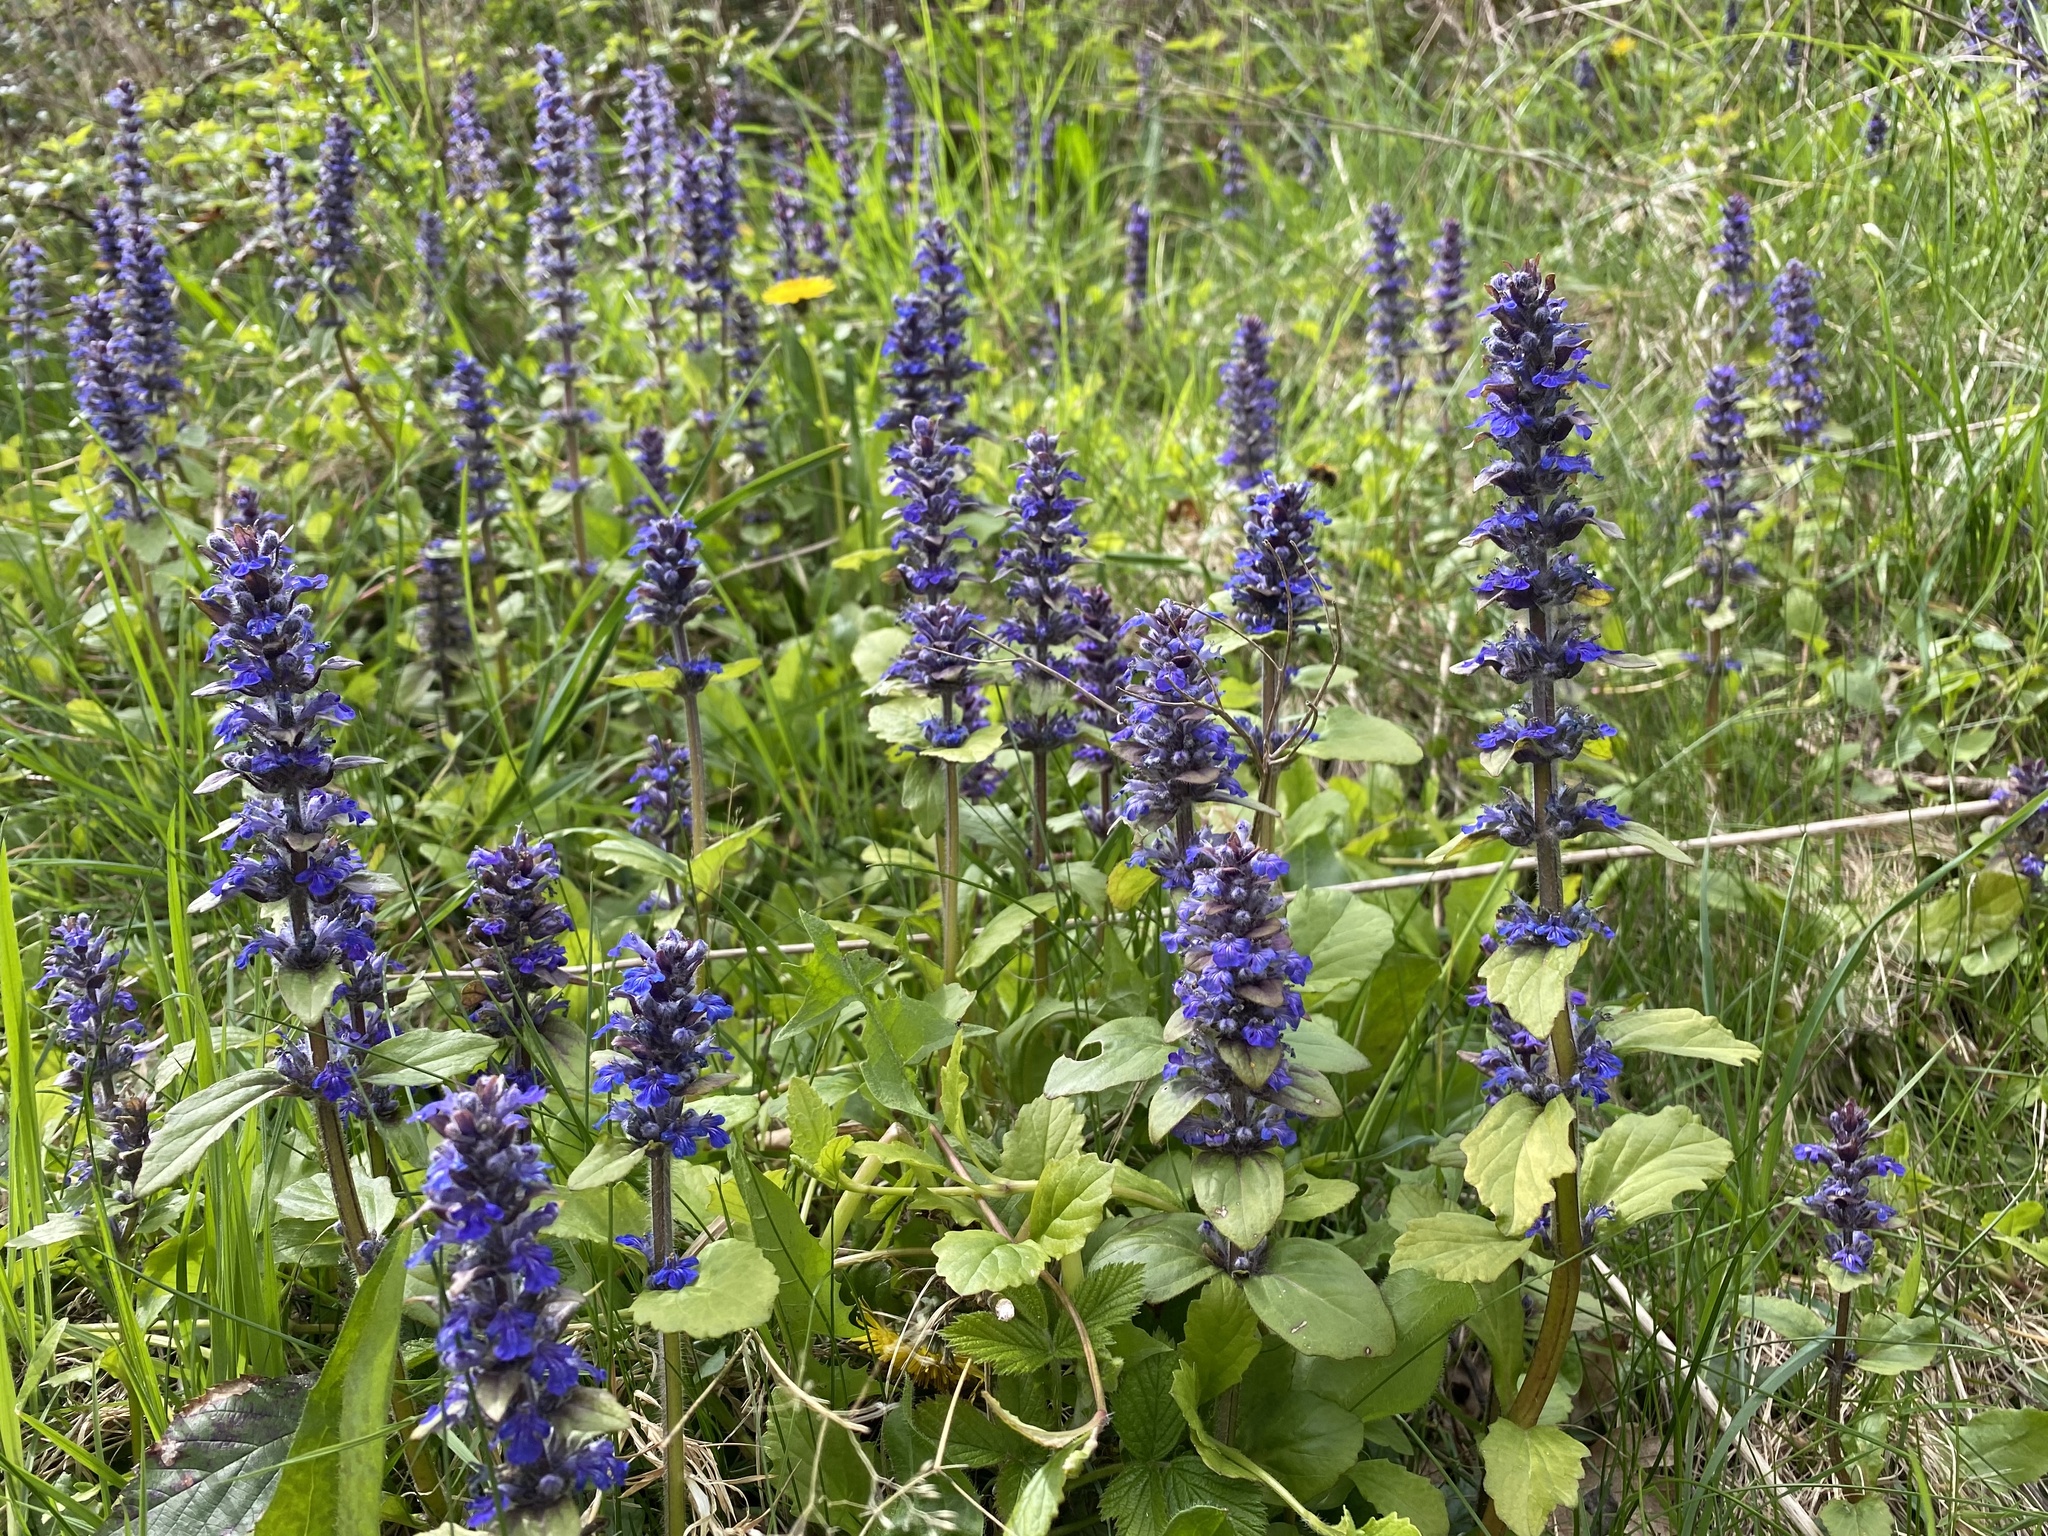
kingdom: Plantae
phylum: Tracheophyta
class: Magnoliopsida
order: Lamiales
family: Lamiaceae
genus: Ajuga
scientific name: Ajuga reptans
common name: Bugle
